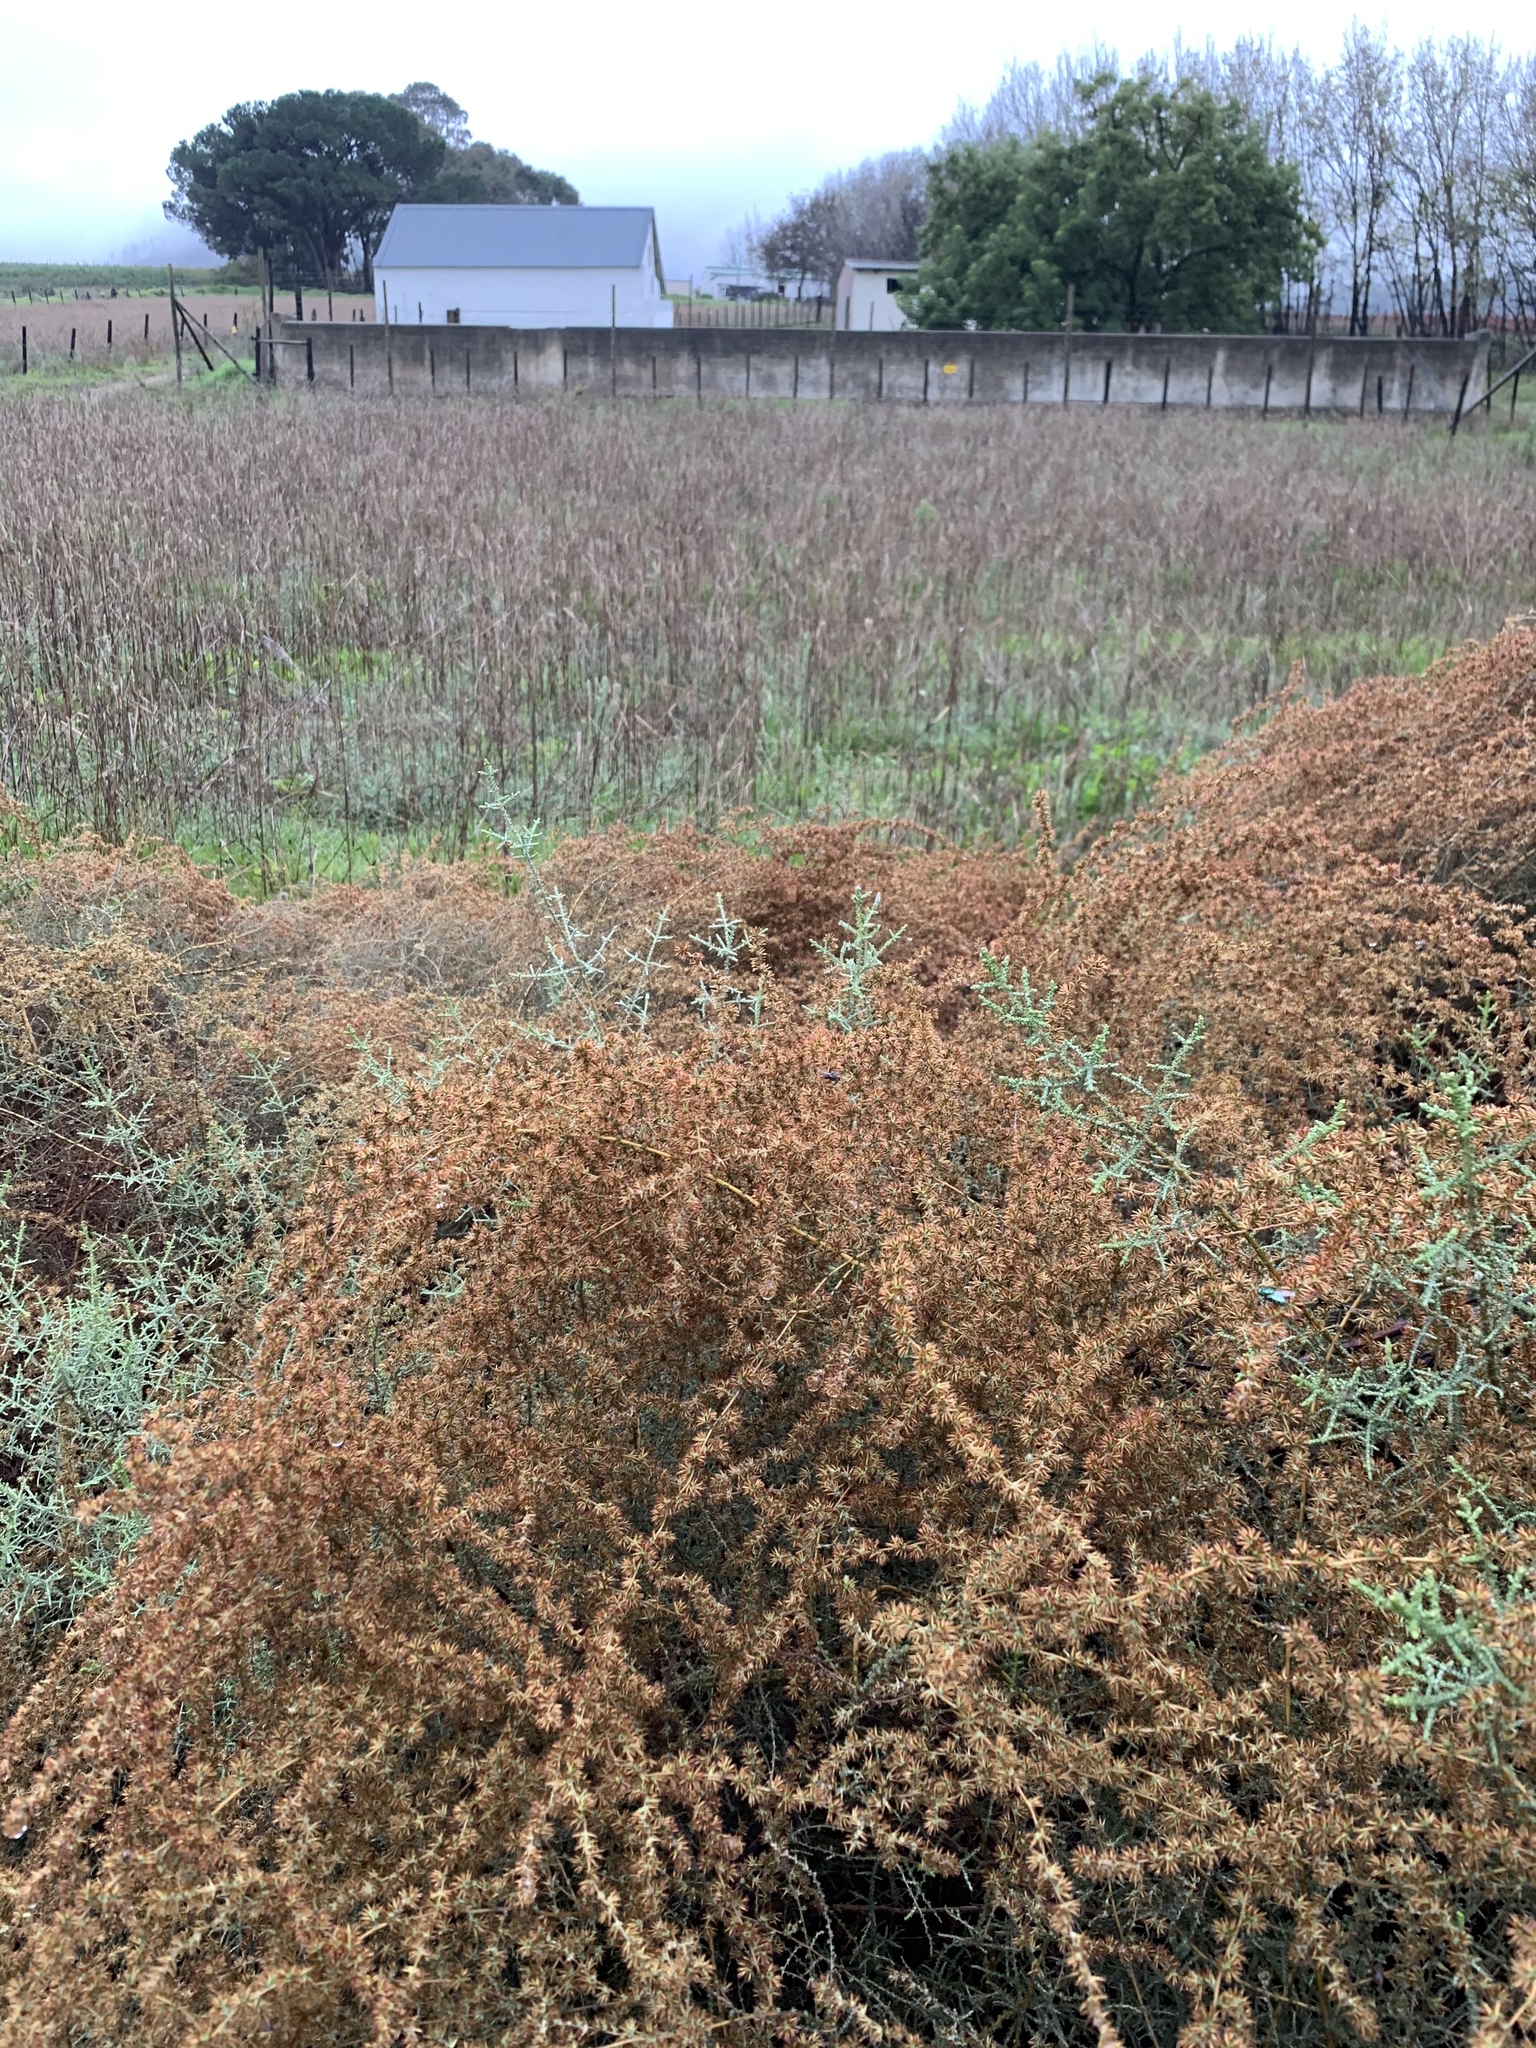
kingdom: Plantae
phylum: Tracheophyta
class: Magnoliopsida
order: Asterales
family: Asteraceae
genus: Seriphium
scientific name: Seriphium plumosum
